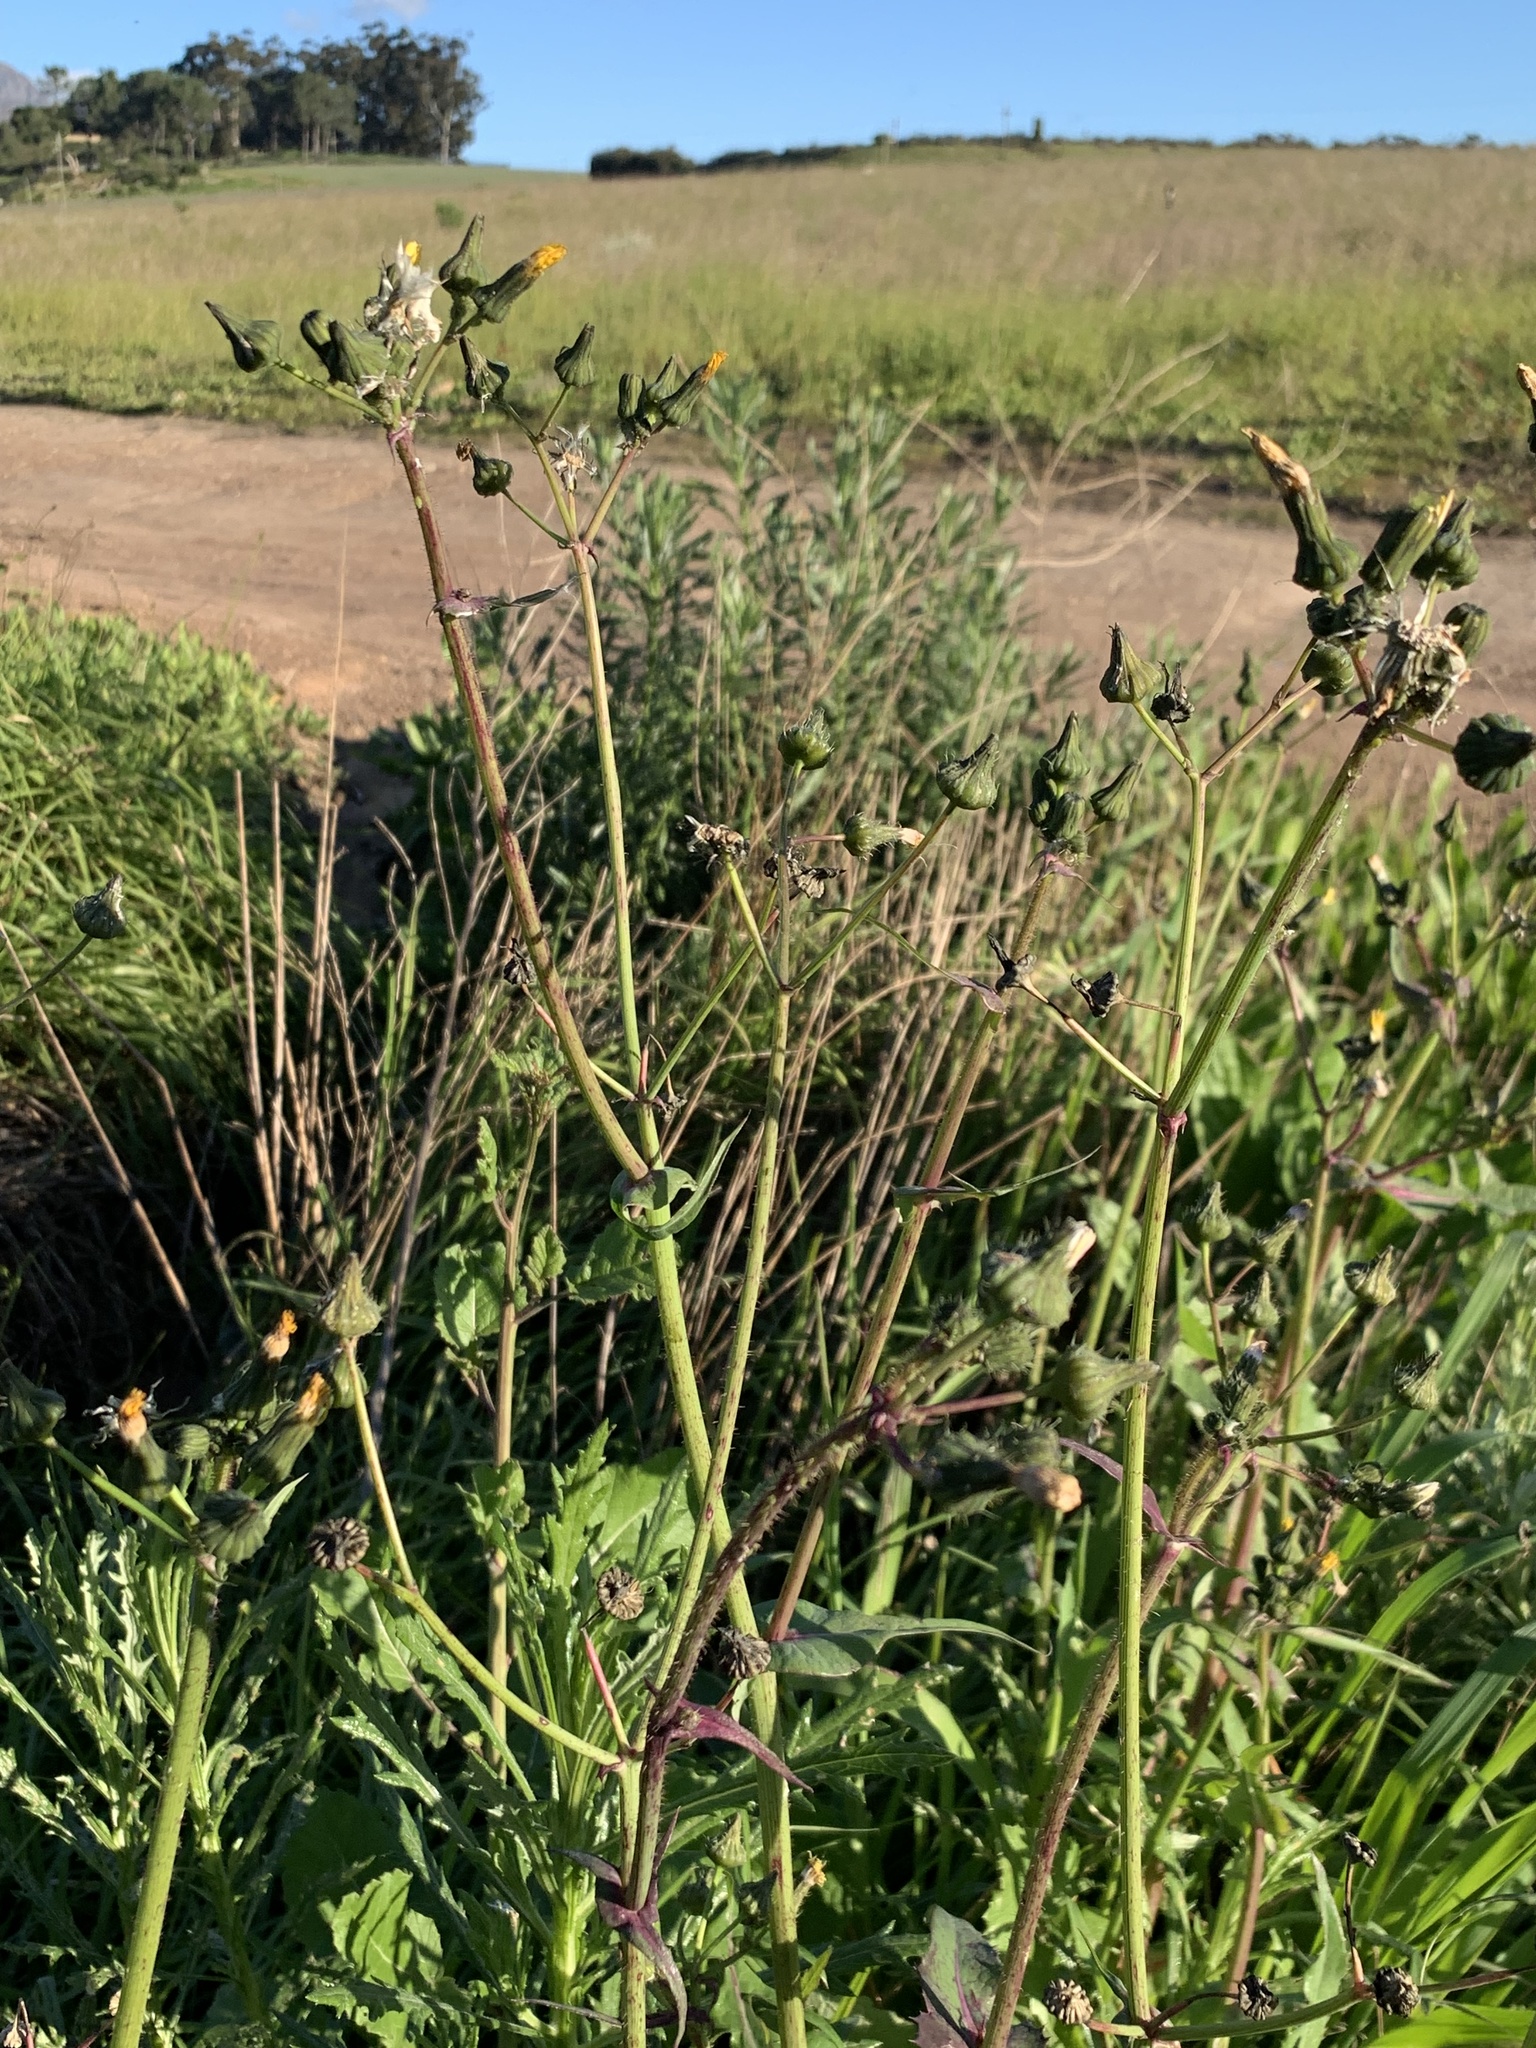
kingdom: Plantae
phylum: Tracheophyta
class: Magnoliopsida
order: Asterales
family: Asteraceae
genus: Sonchus
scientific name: Sonchus oleraceus
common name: Common sowthistle
